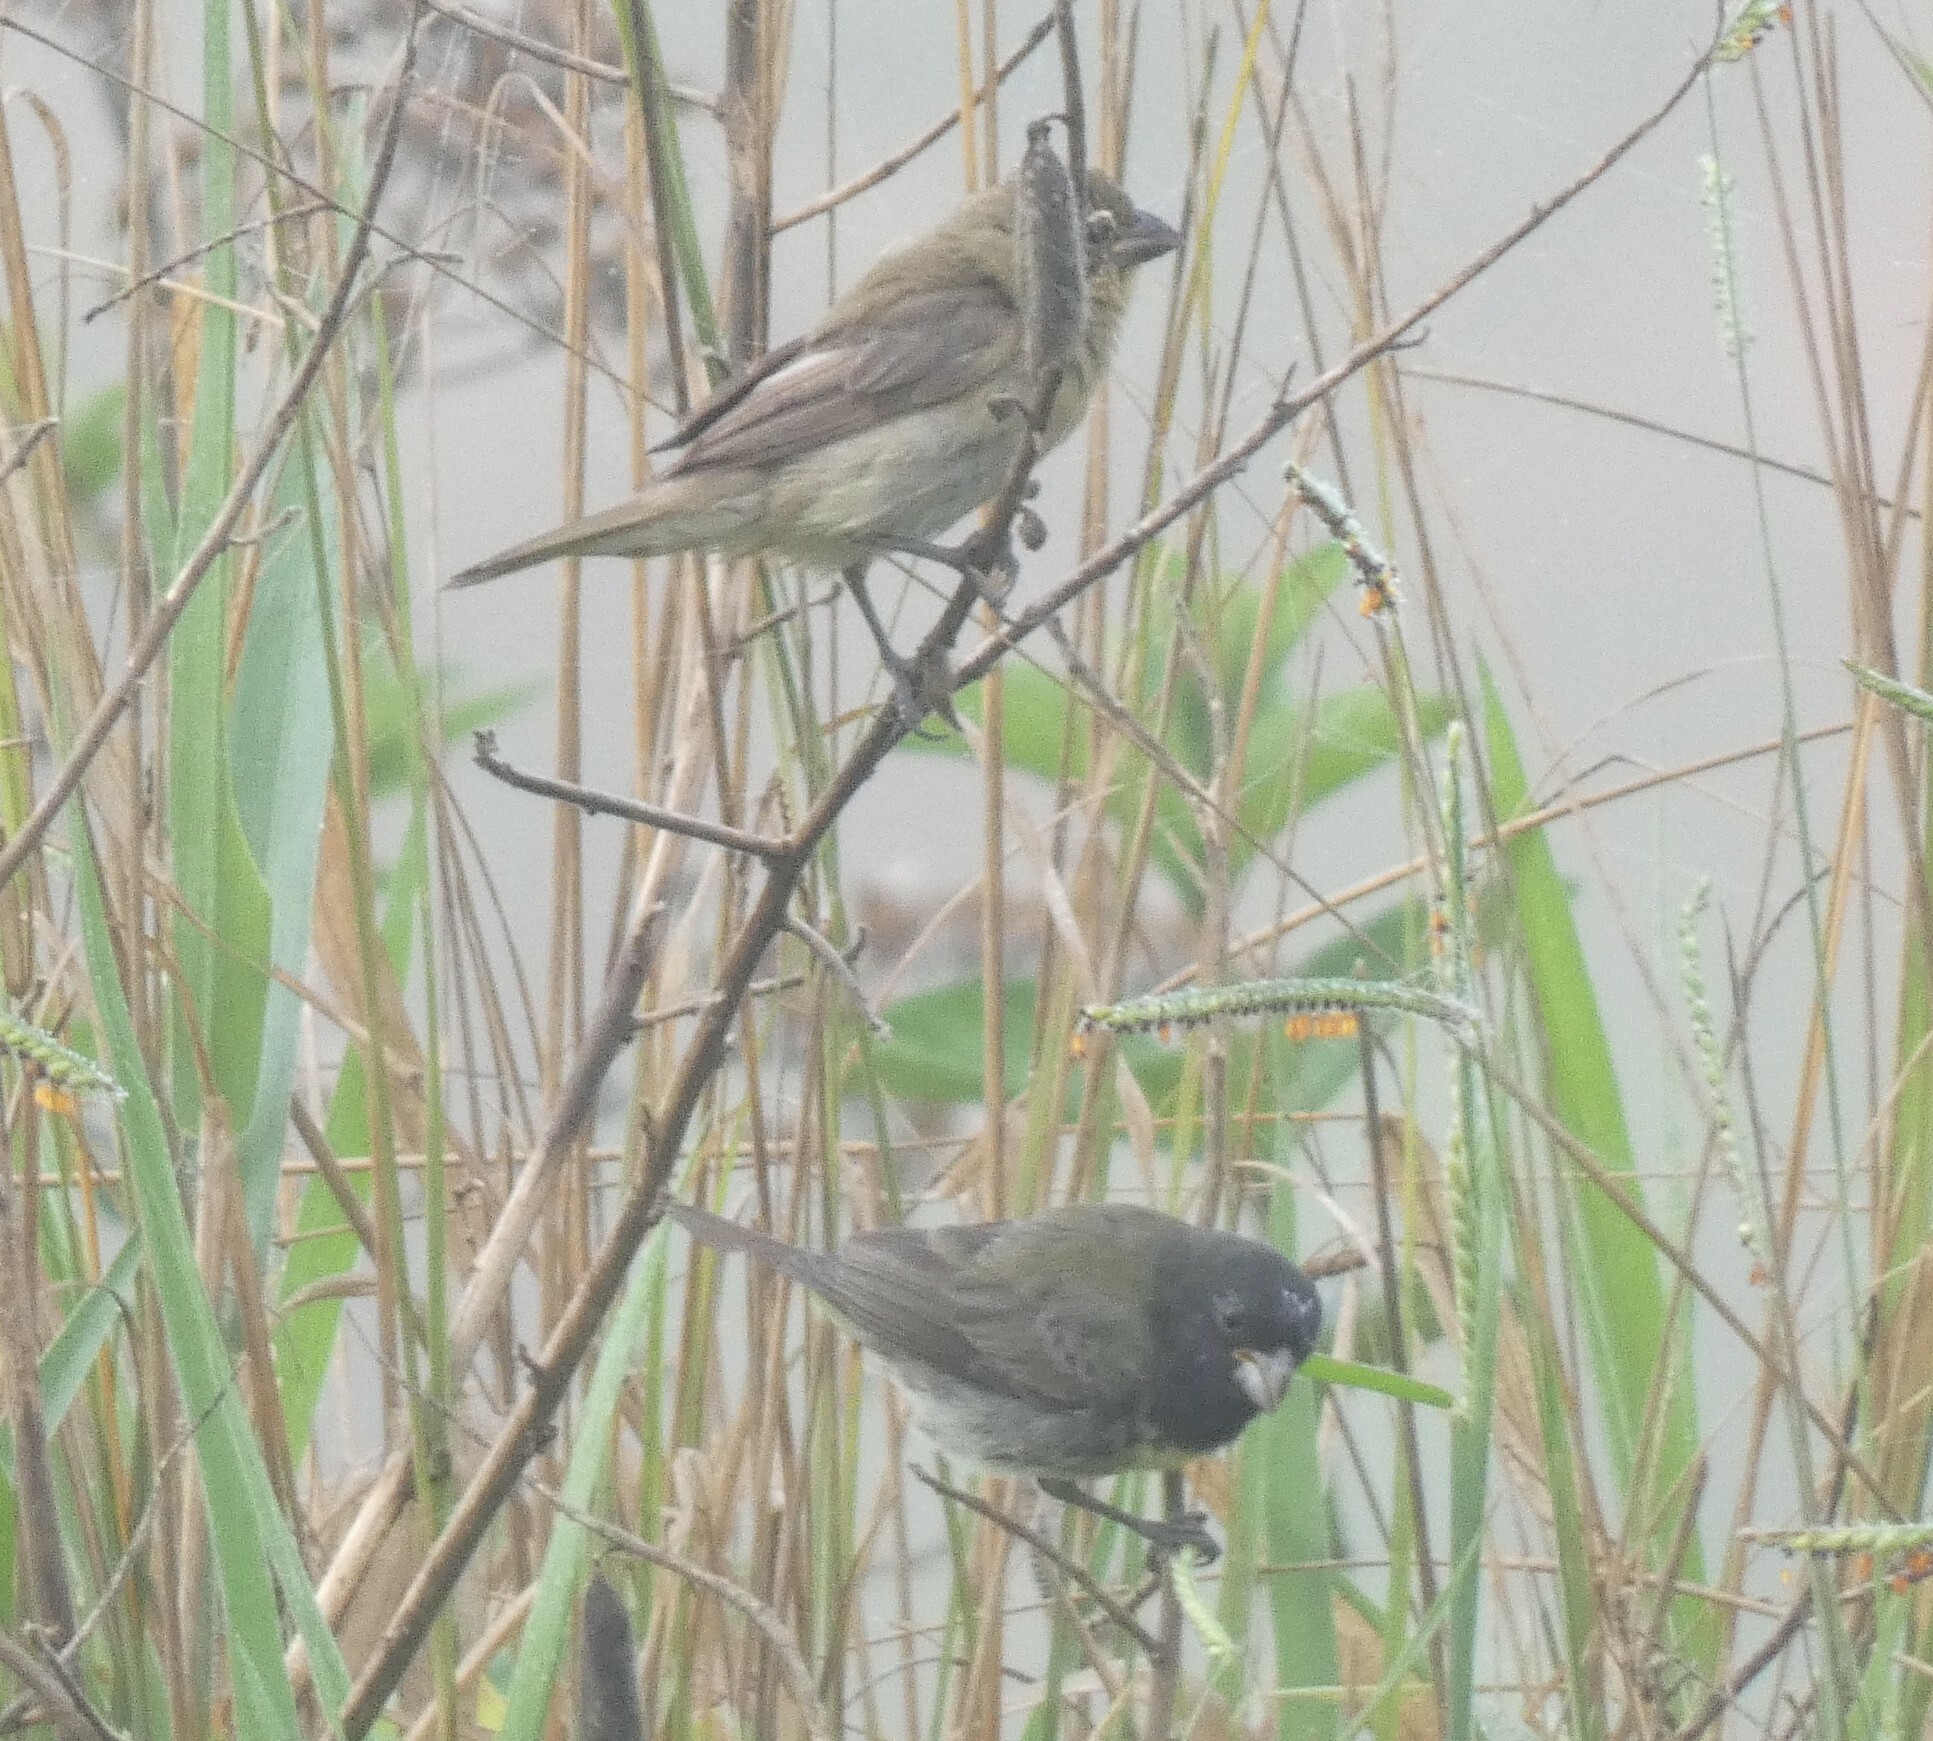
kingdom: Animalia
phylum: Chordata
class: Aves
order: Passeriformes
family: Thraupidae
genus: Sporophila
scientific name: Sporophila nigricollis
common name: Yellow-bellied seedeater
